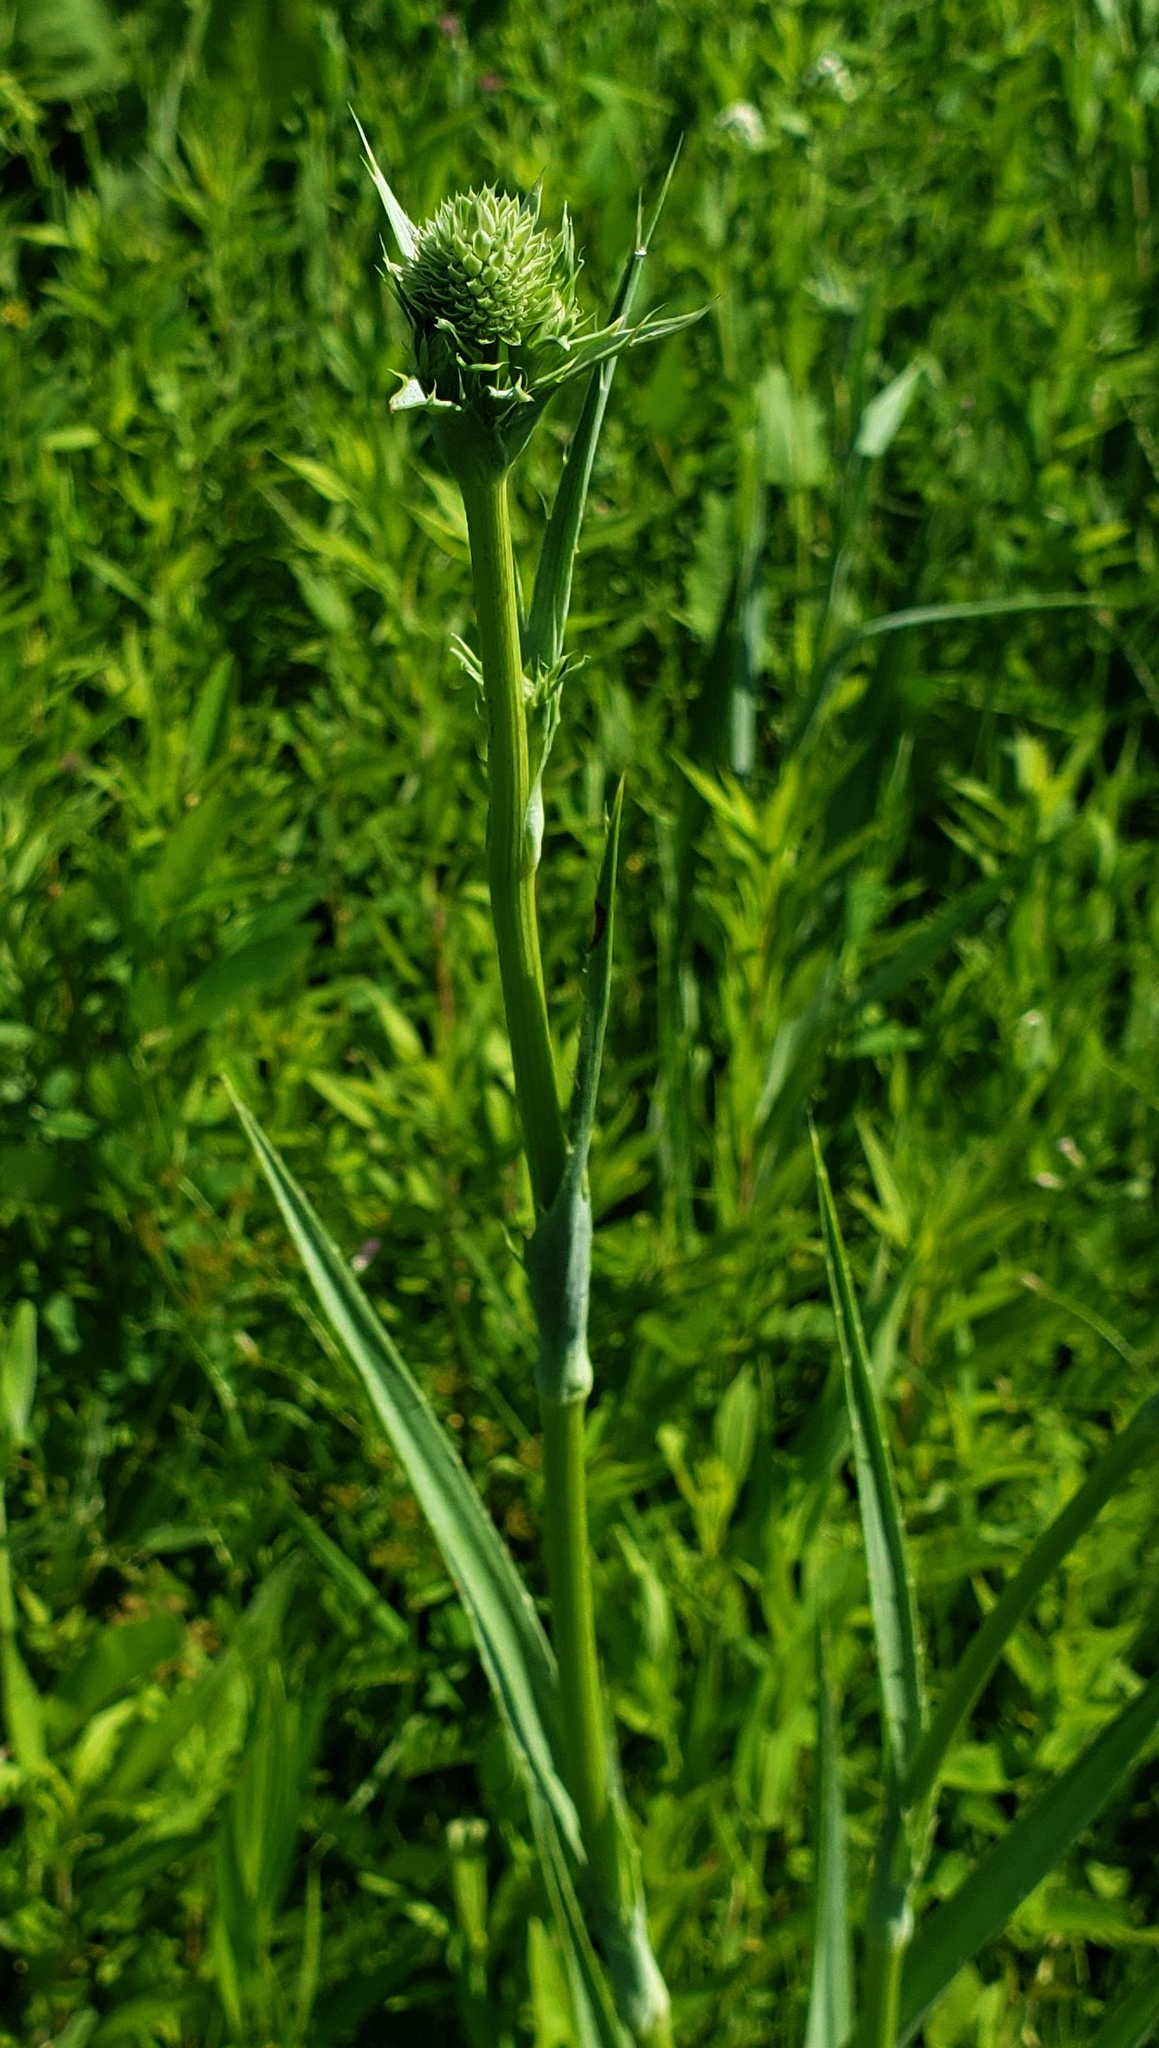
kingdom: Plantae
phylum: Tracheophyta
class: Magnoliopsida
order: Apiales
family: Apiaceae
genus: Eryngium
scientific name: Eryngium yuccifolium
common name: Button eryngo
